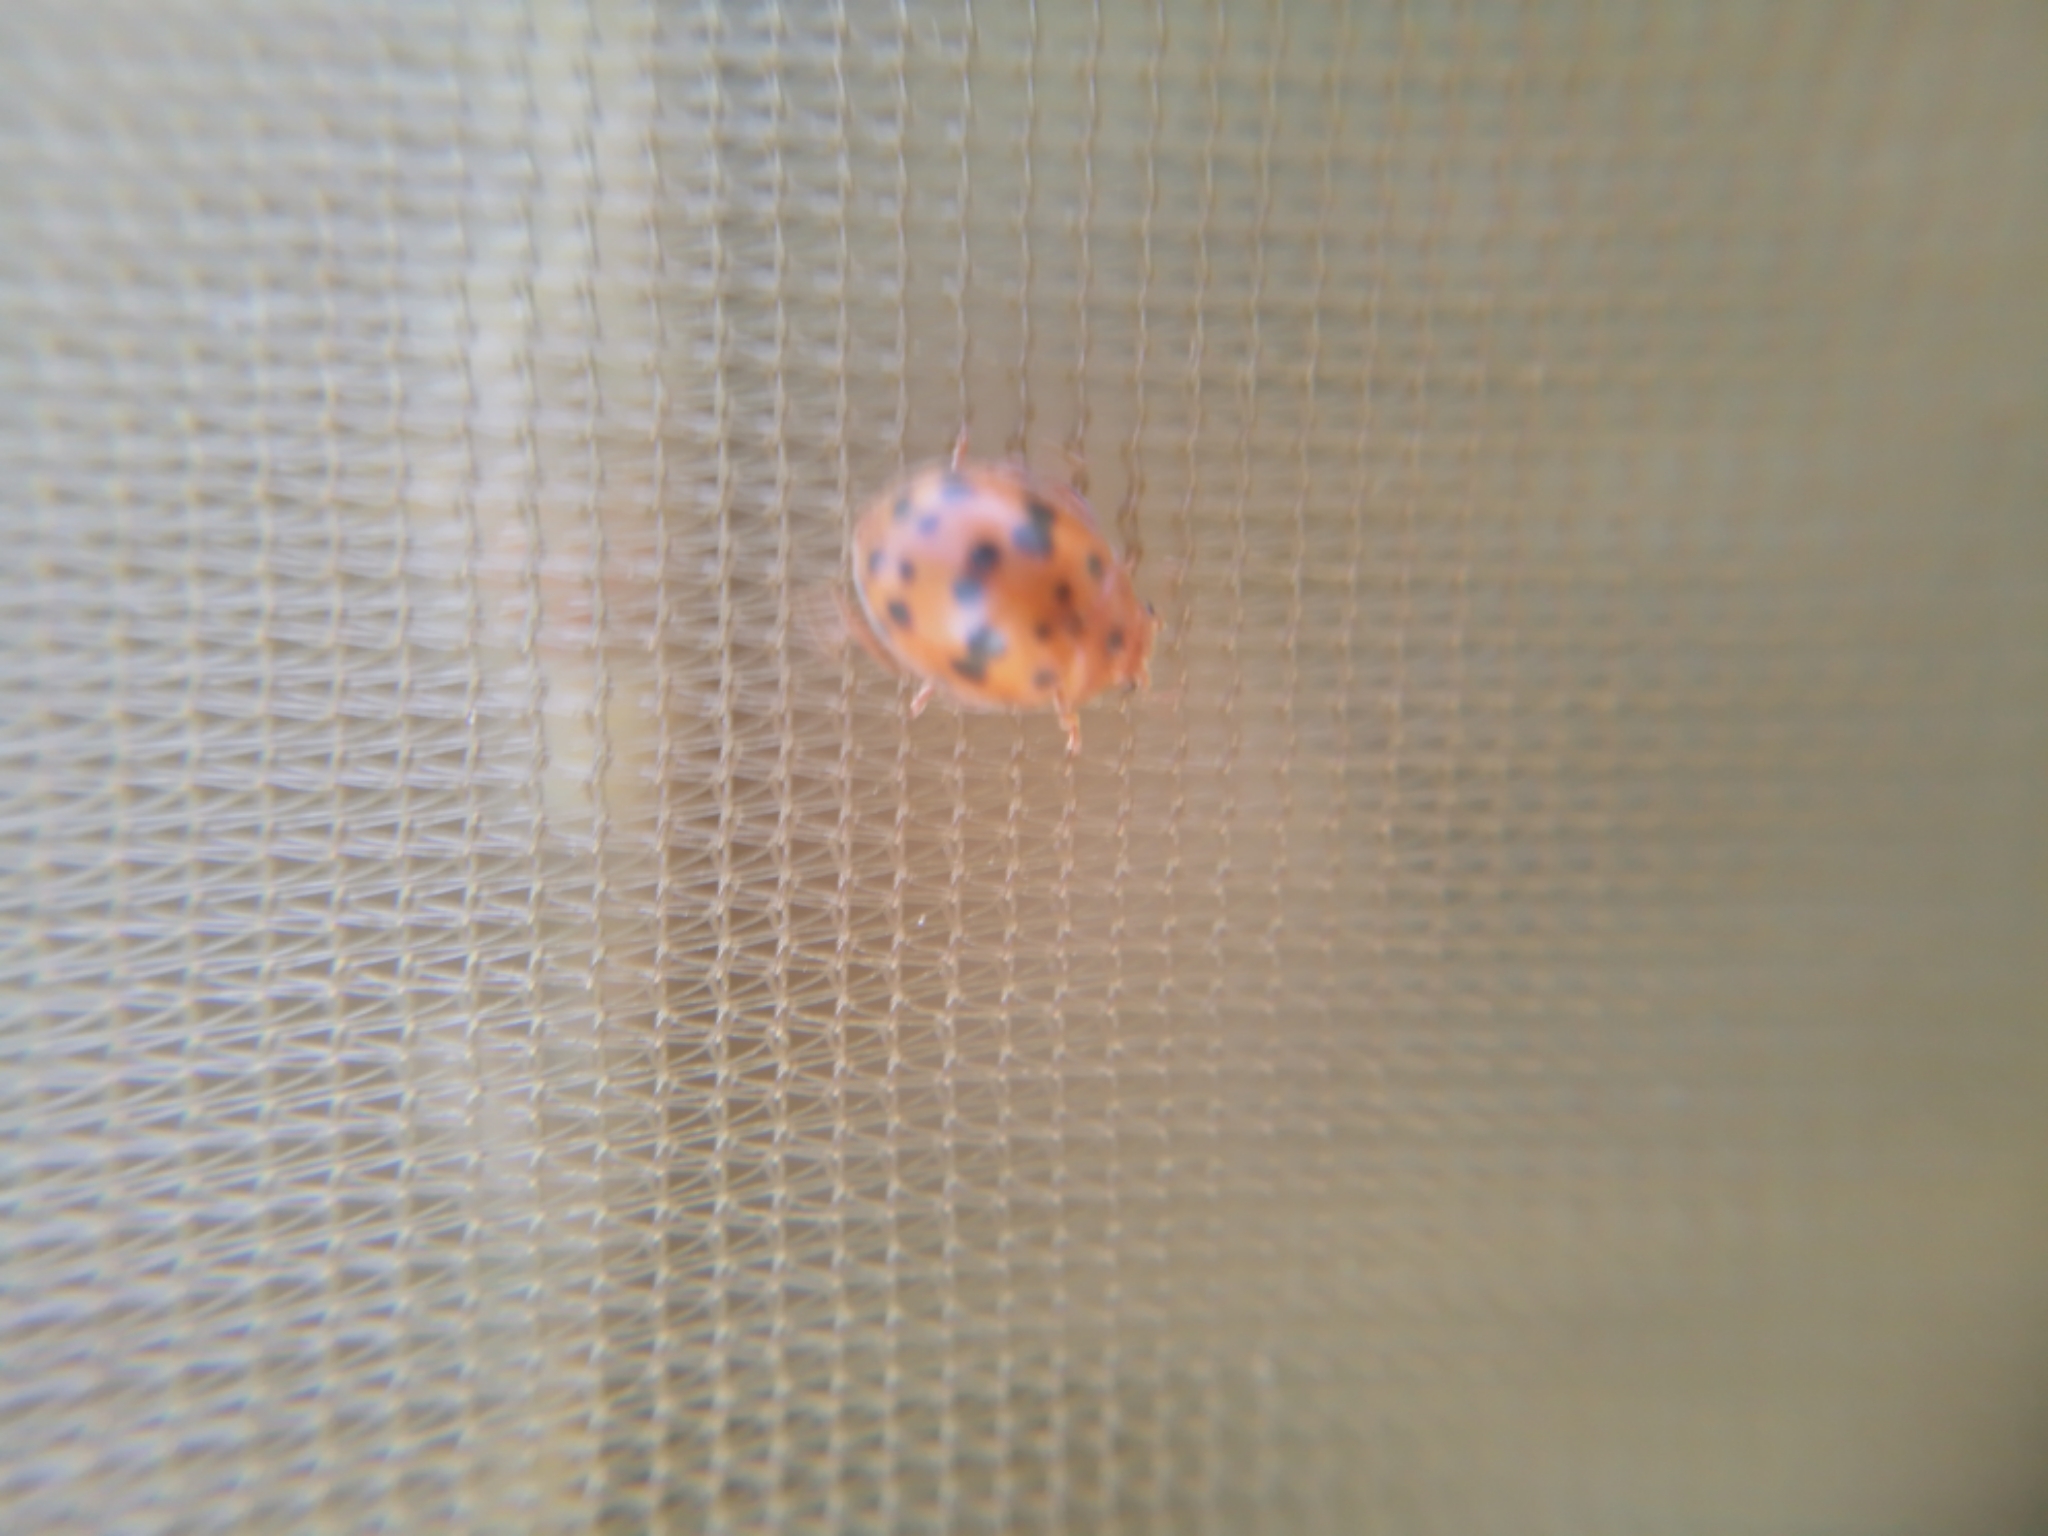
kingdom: Animalia
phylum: Arthropoda
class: Insecta
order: Coleoptera
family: Coccinellidae
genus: Subcoccinella
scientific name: Subcoccinella vigintiquatuorpunctata
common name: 24-spot ladybird
